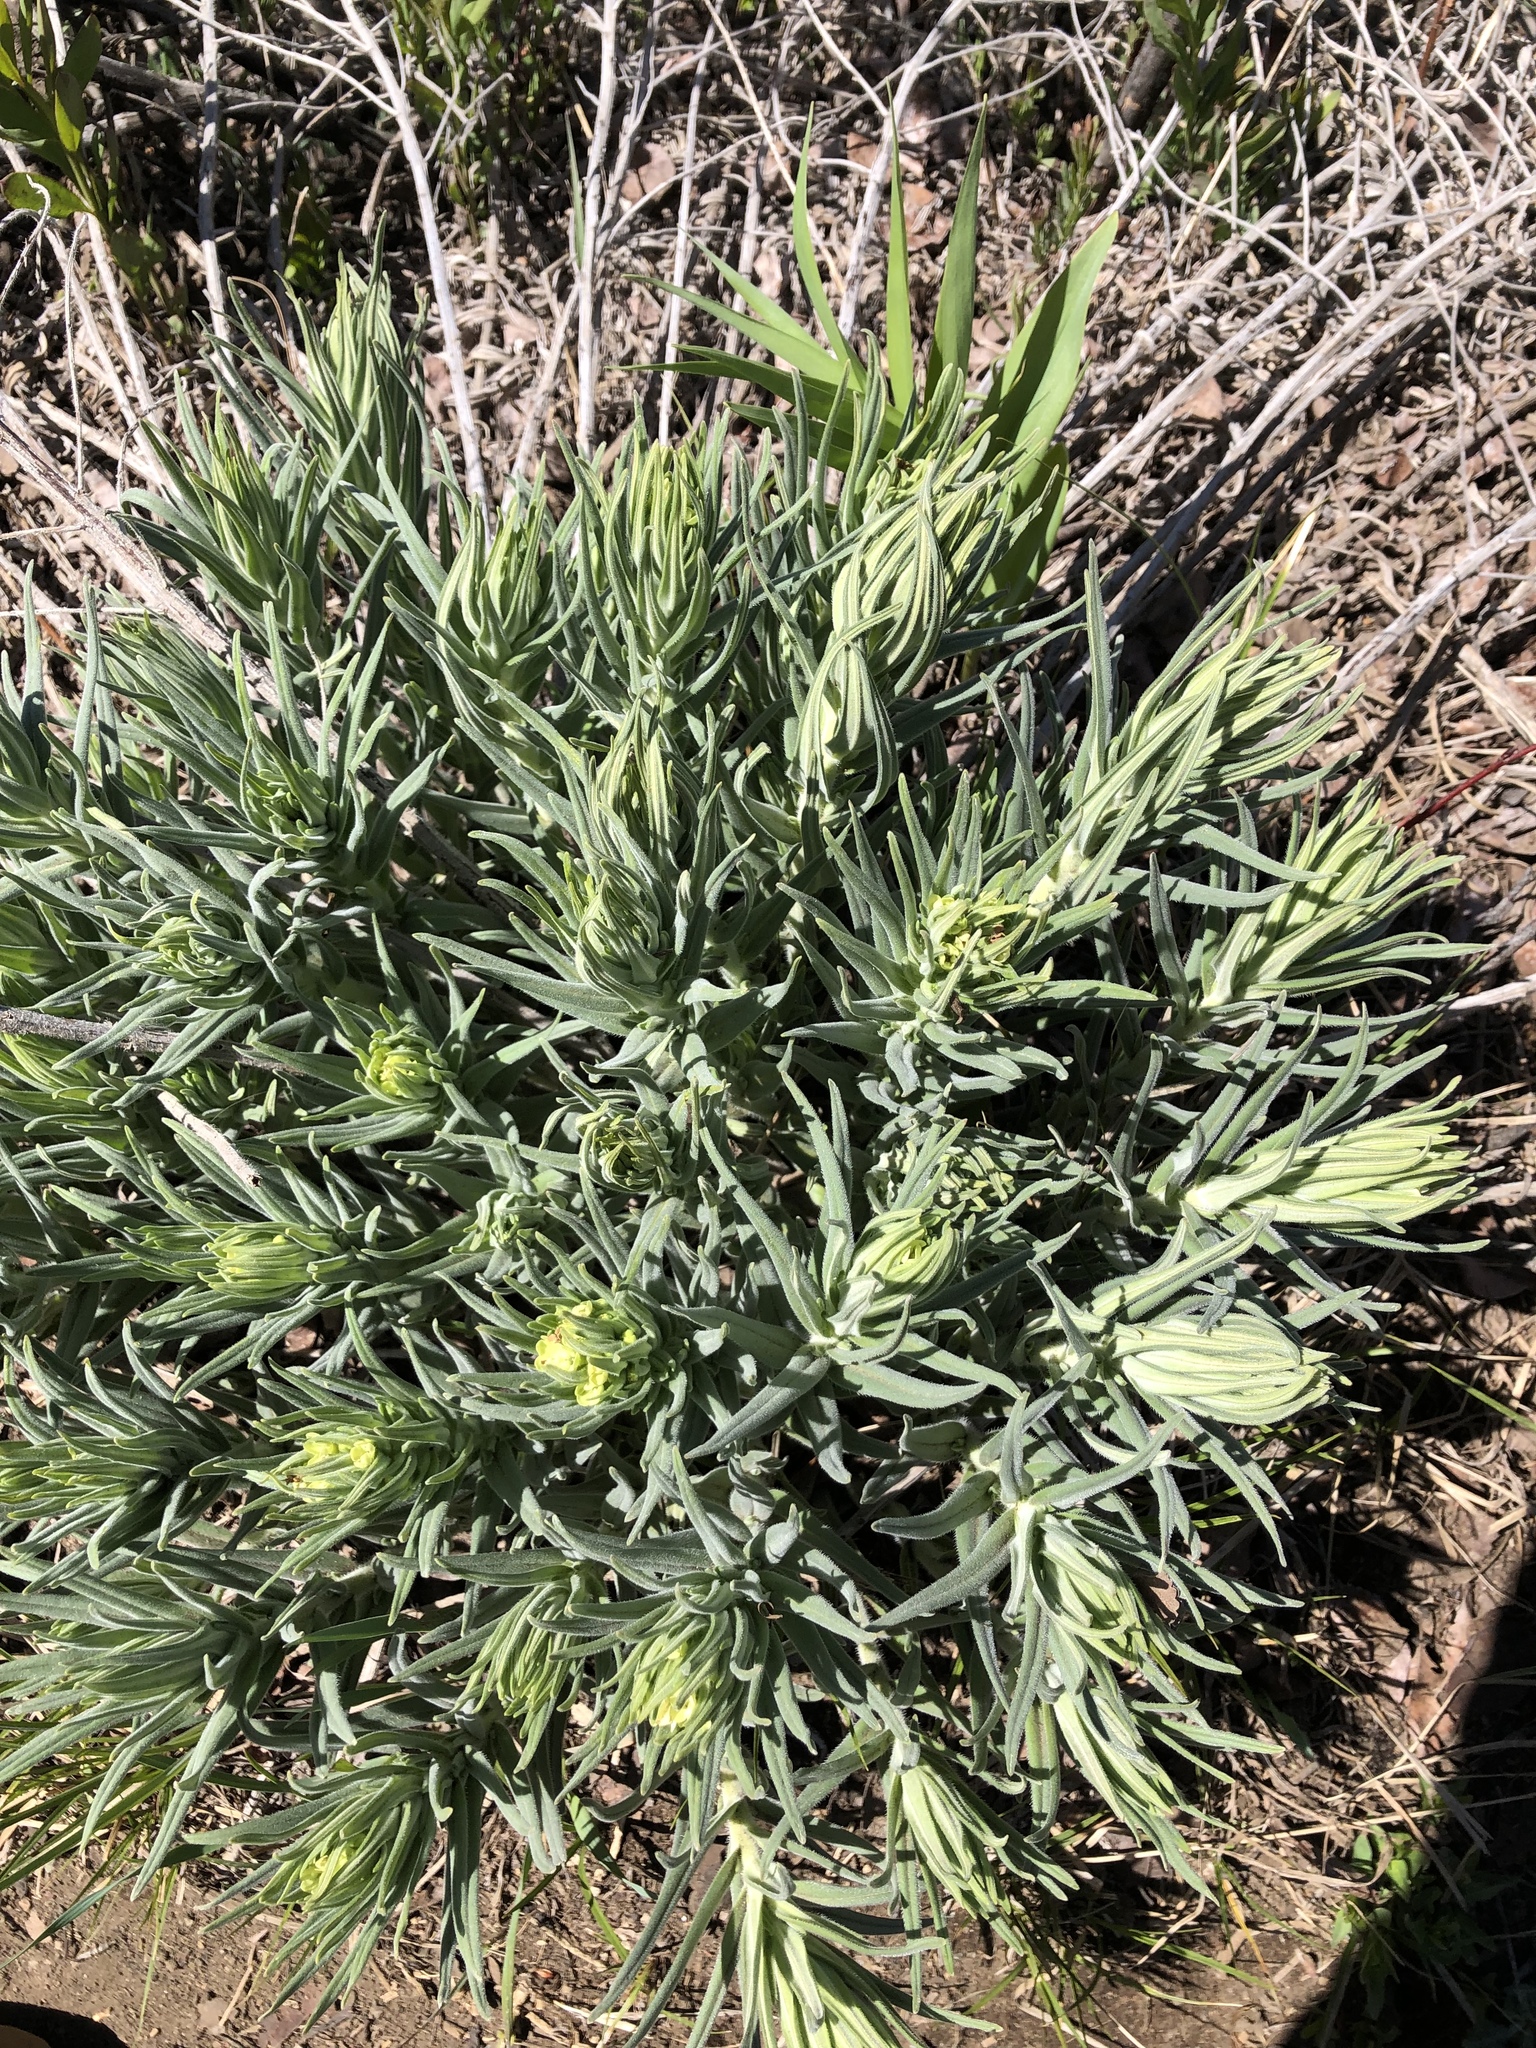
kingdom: Plantae
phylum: Tracheophyta
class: Magnoliopsida
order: Boraginales
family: Boraginaceae
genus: Lithospermum
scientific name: Lithospermum ruderale
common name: Western gromwell
